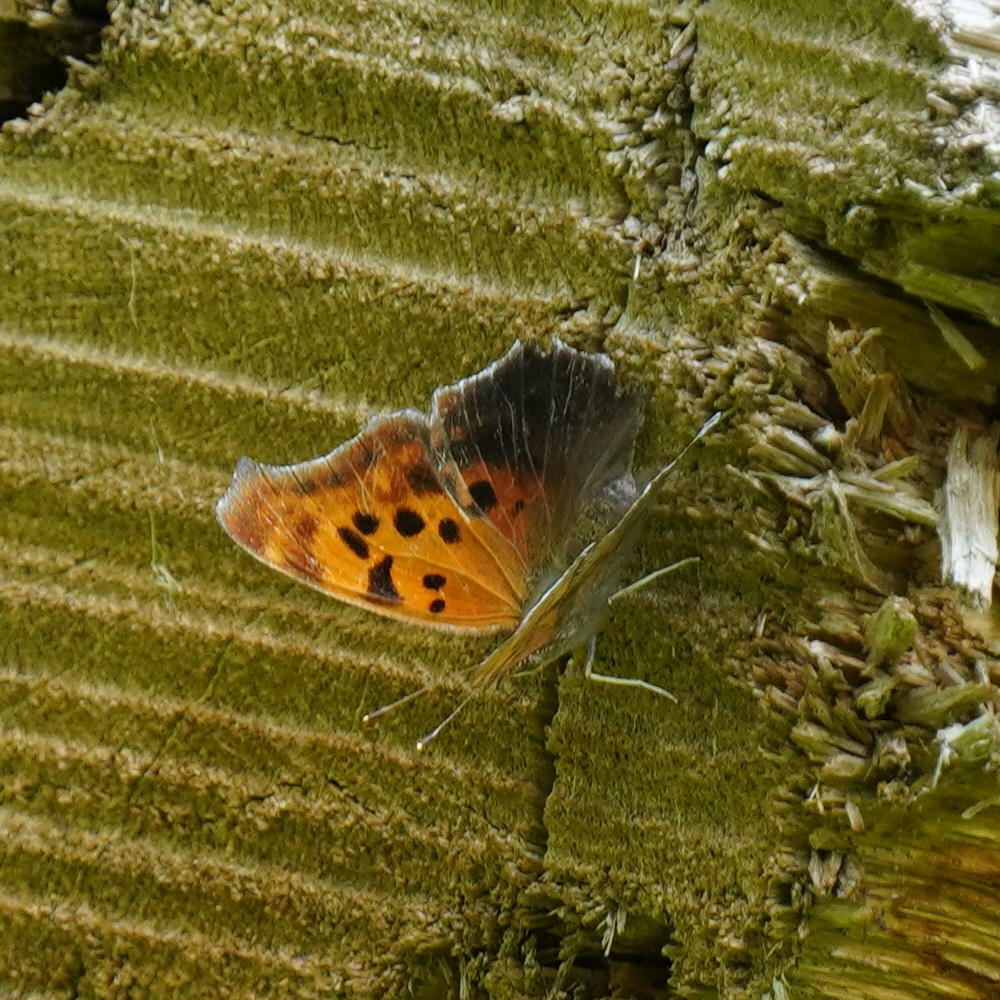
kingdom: Animalia
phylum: Arthropoda
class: Insecta
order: Lepidoptera
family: Nymphalidae
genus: Polygonia
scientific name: Polygonia interrogationis
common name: Question mark
